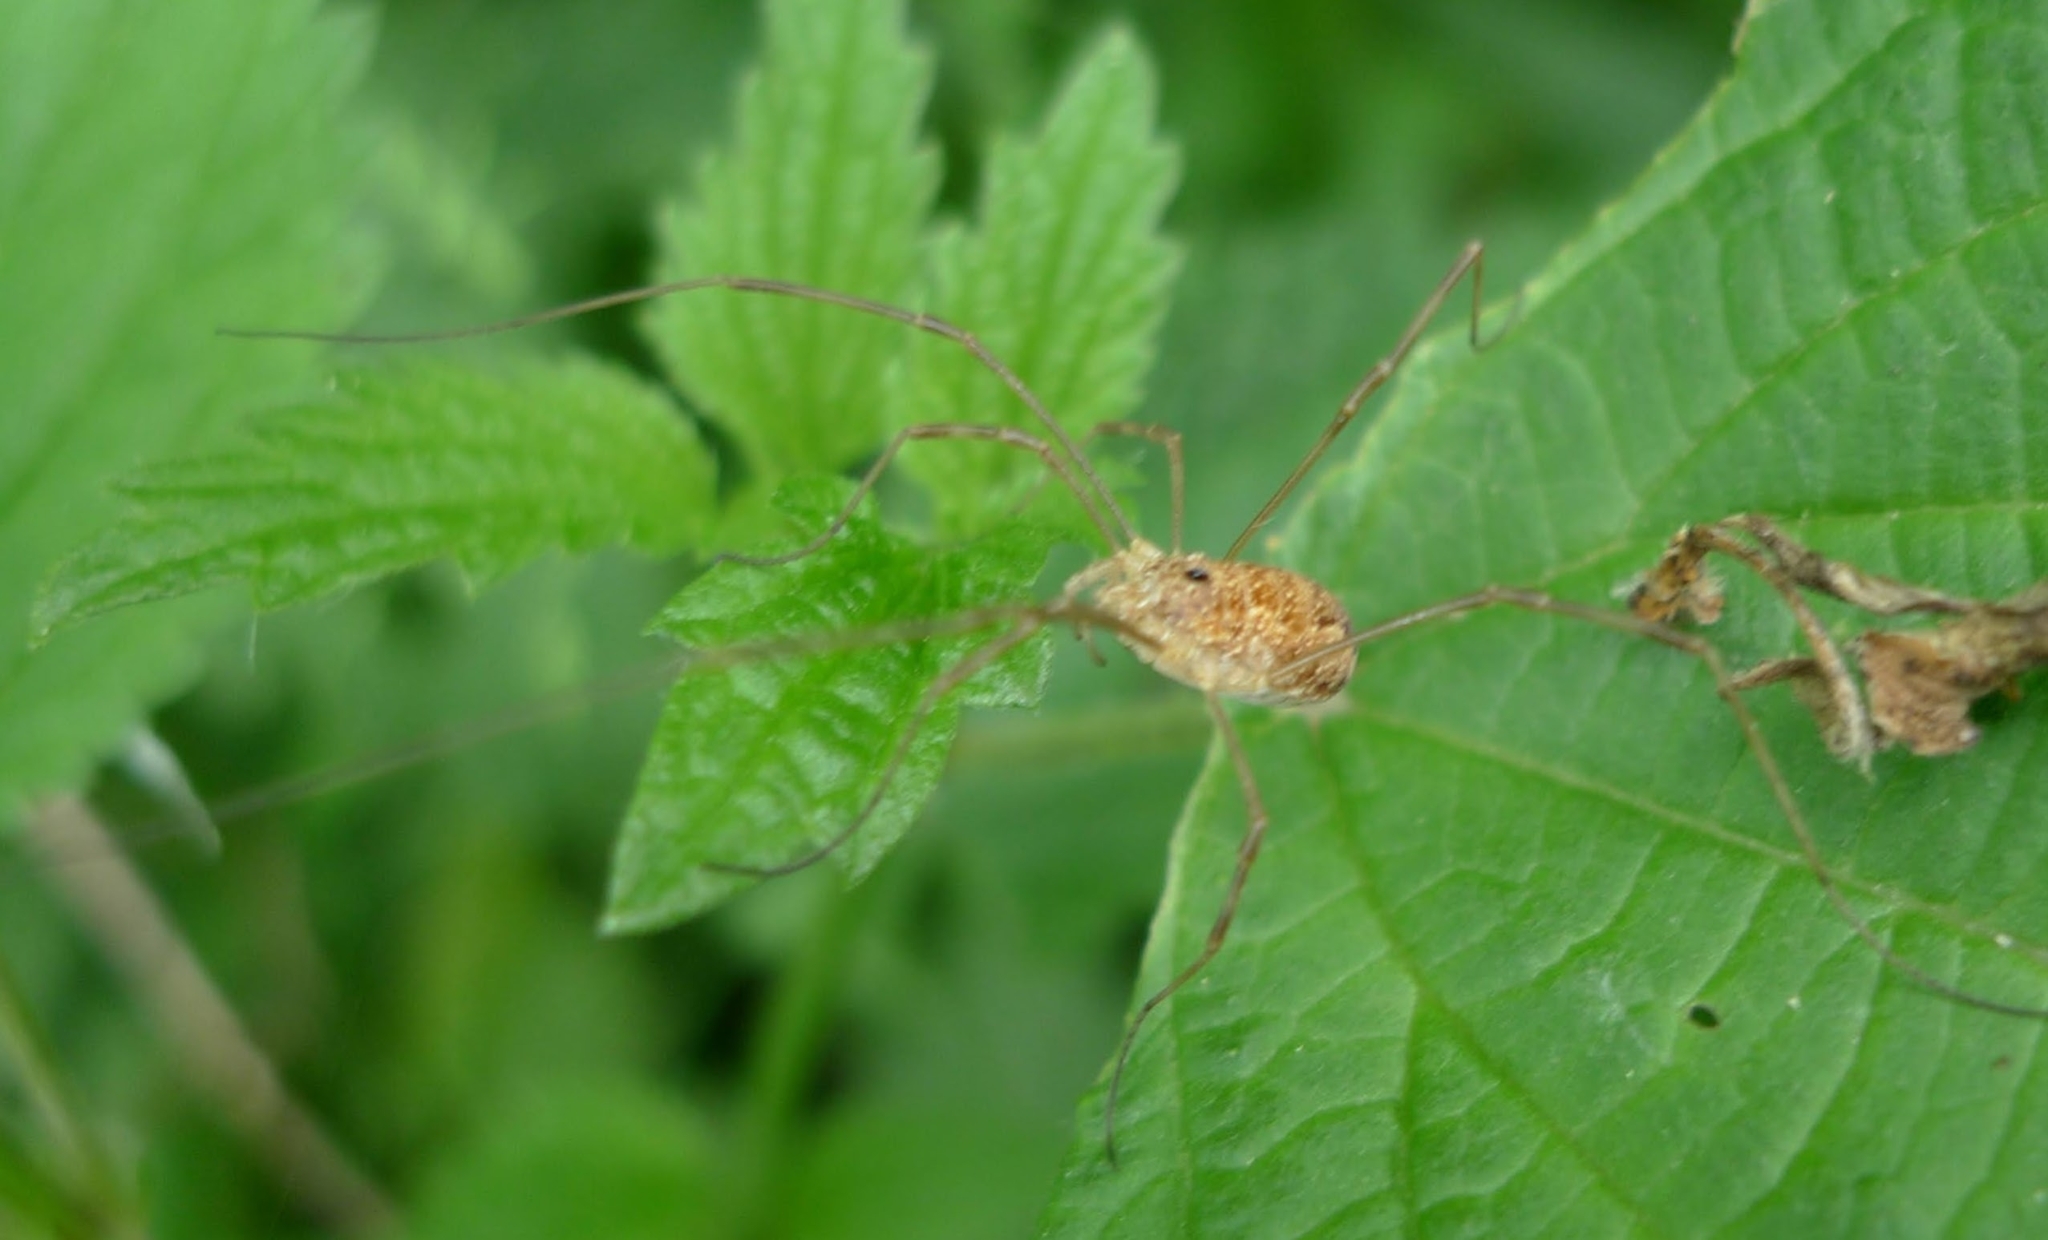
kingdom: Animalia
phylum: Arthropoda
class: Arachnida
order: Opiliones
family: Phalangiidae
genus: Rilaena
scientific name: Rilaena triangularis
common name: Spring harvestman
